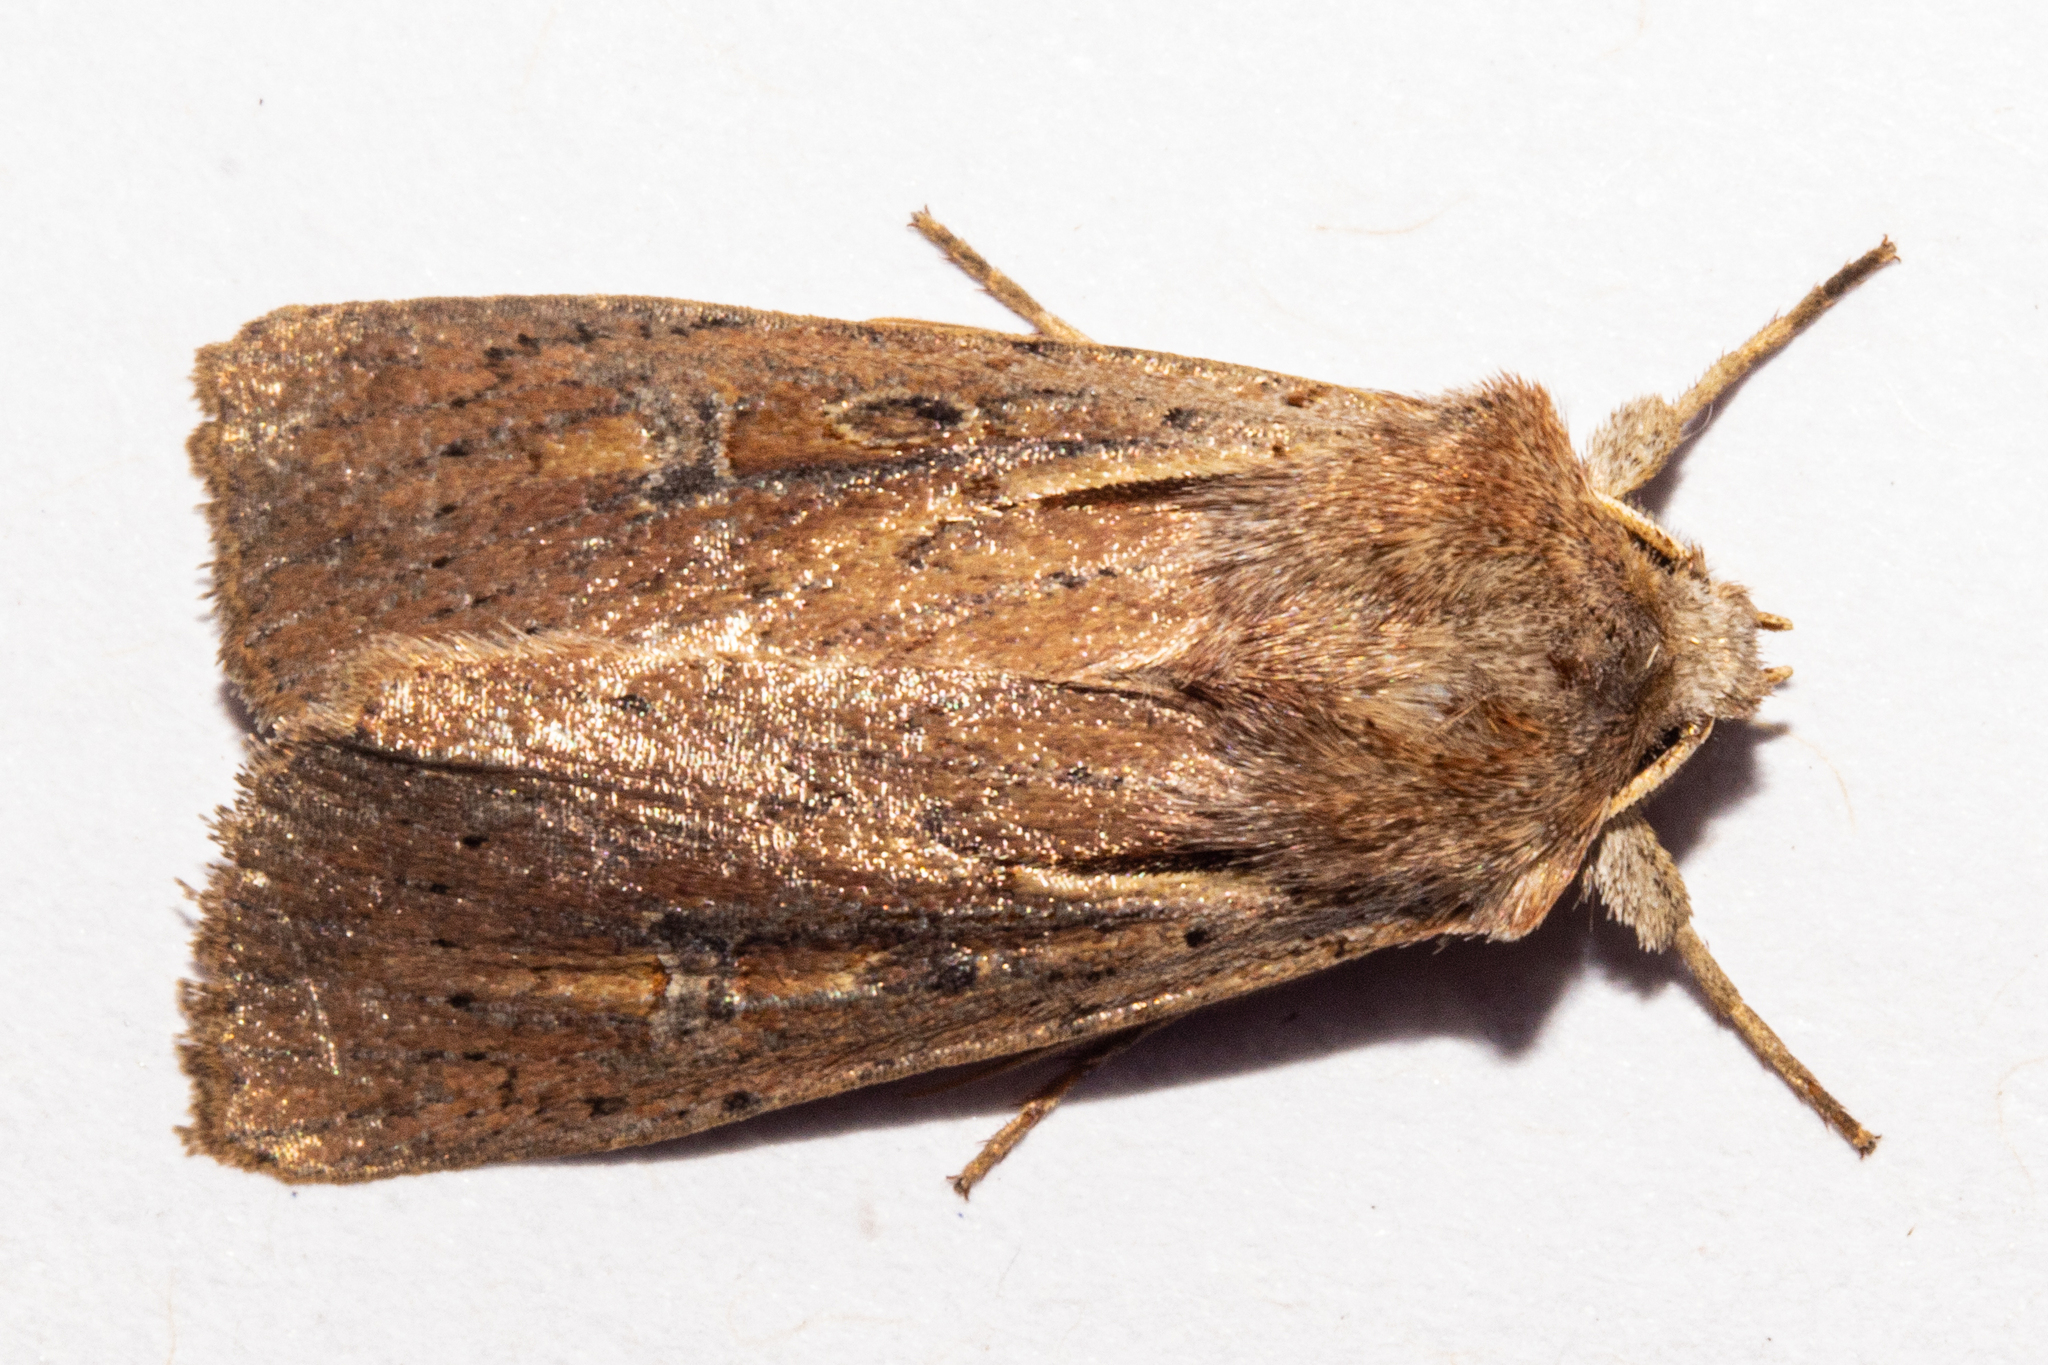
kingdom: Animalia
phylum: Arthropoda
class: Insecta
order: Lepidoptera
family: Noctuidae
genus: Ichneutica
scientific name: Ichneutica atristriga
